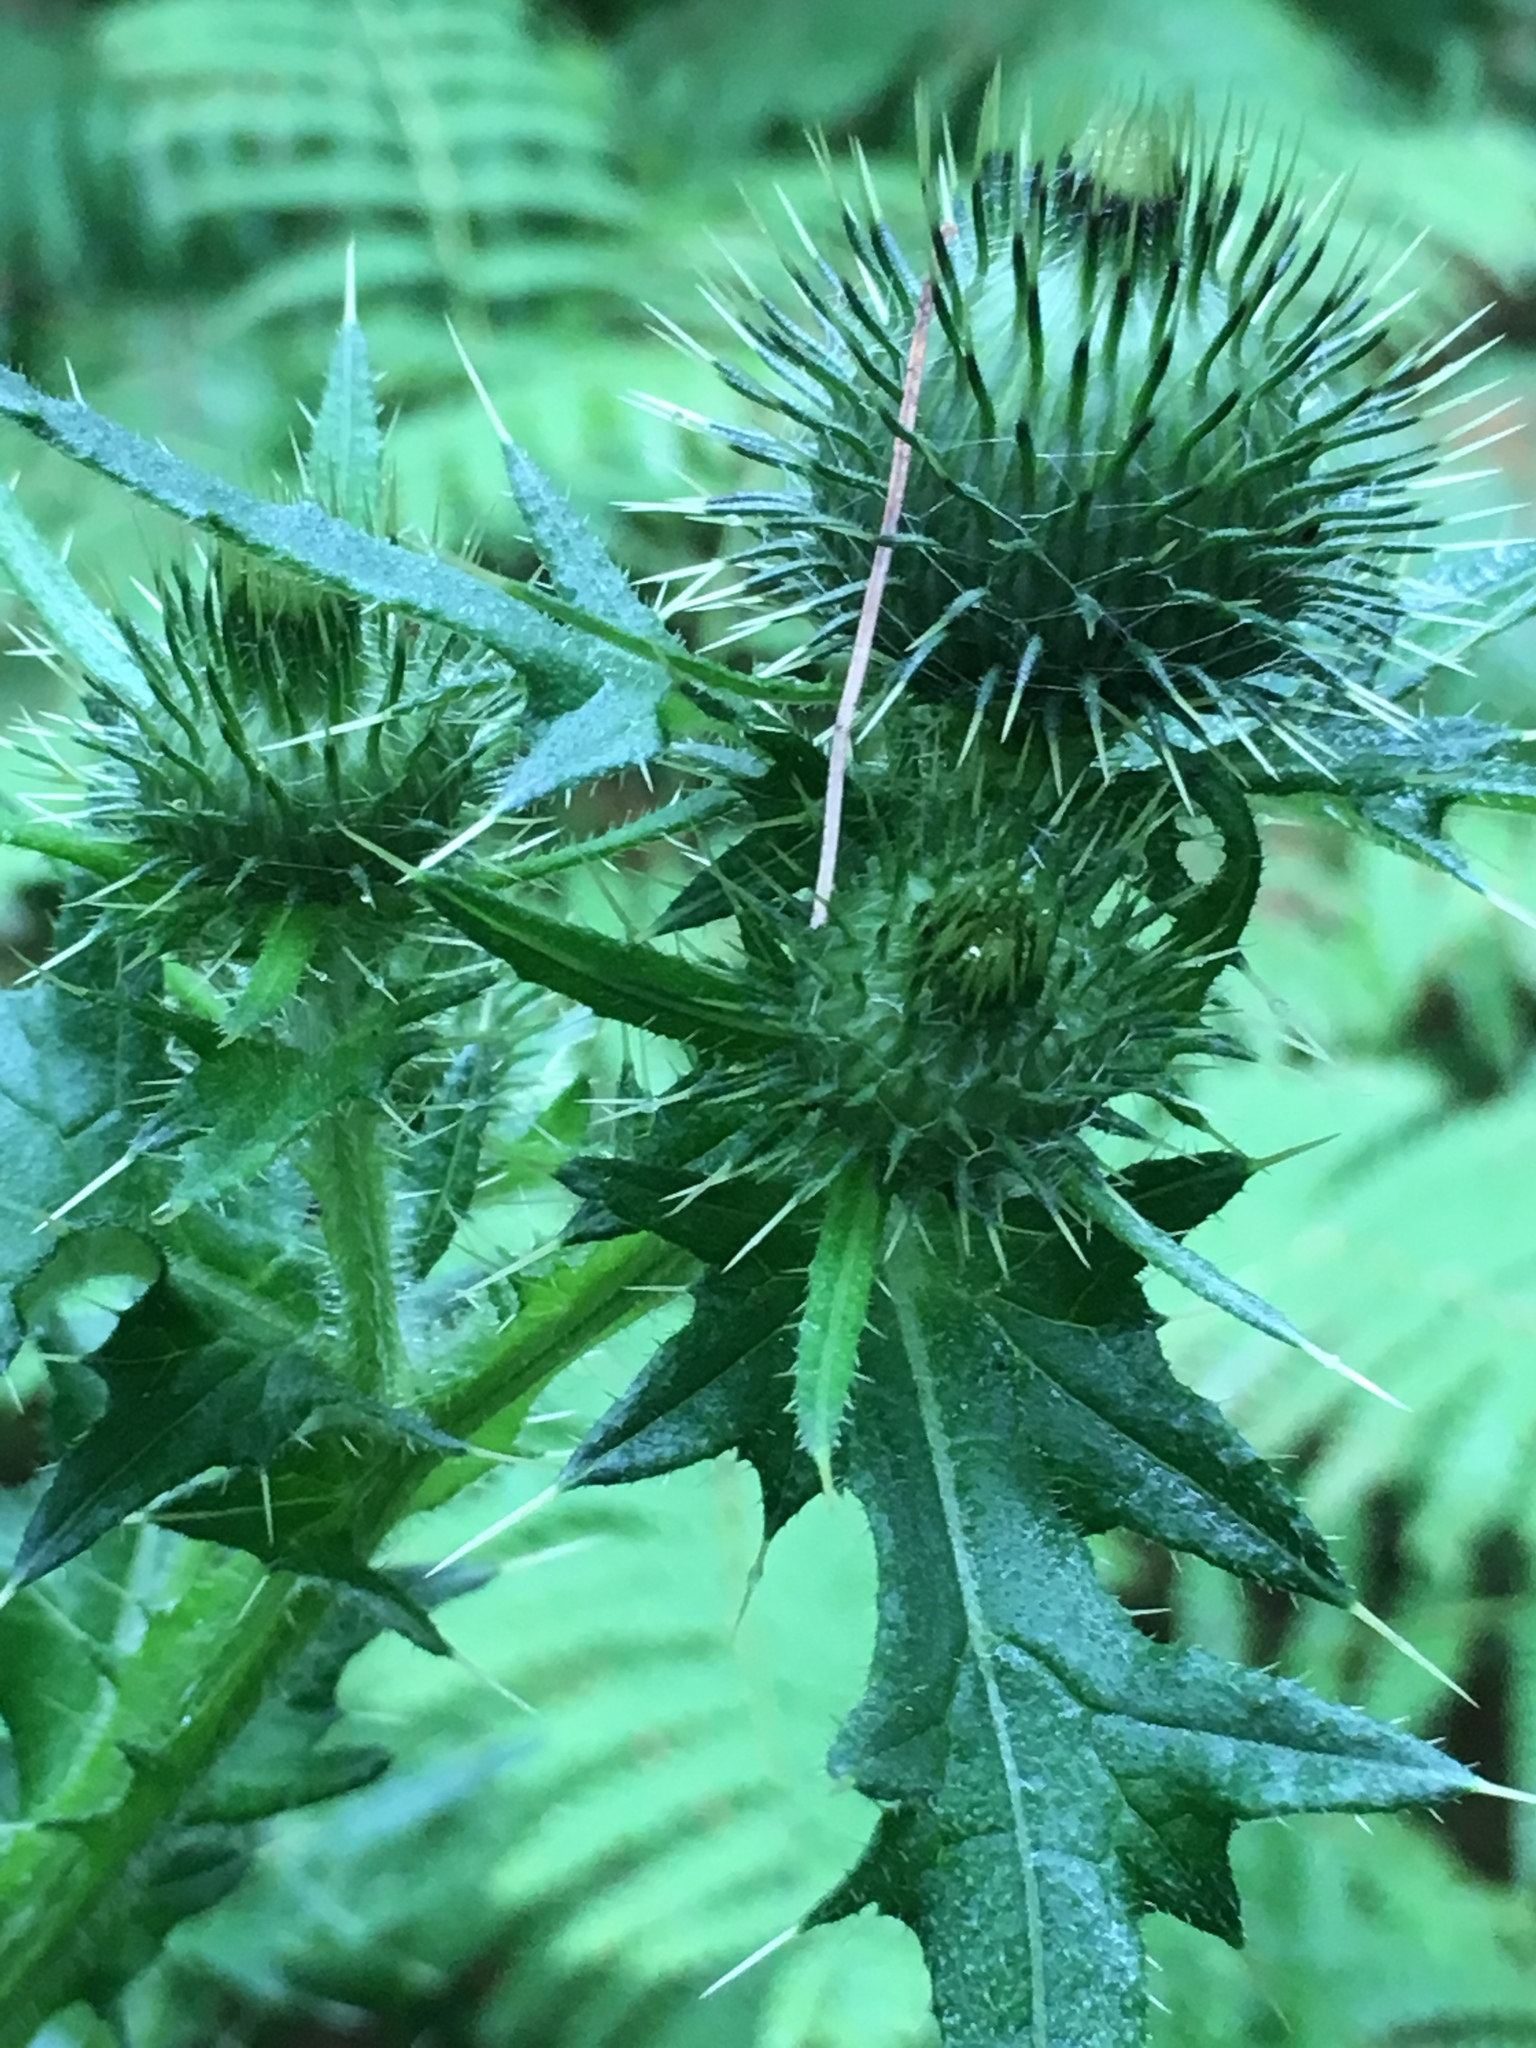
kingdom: Plantae
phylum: Tracheophyta
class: Magnoliopsida
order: Asterales
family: Asteraceae
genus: Cirsium
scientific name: Cirsium vulgare
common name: Bull thistle
